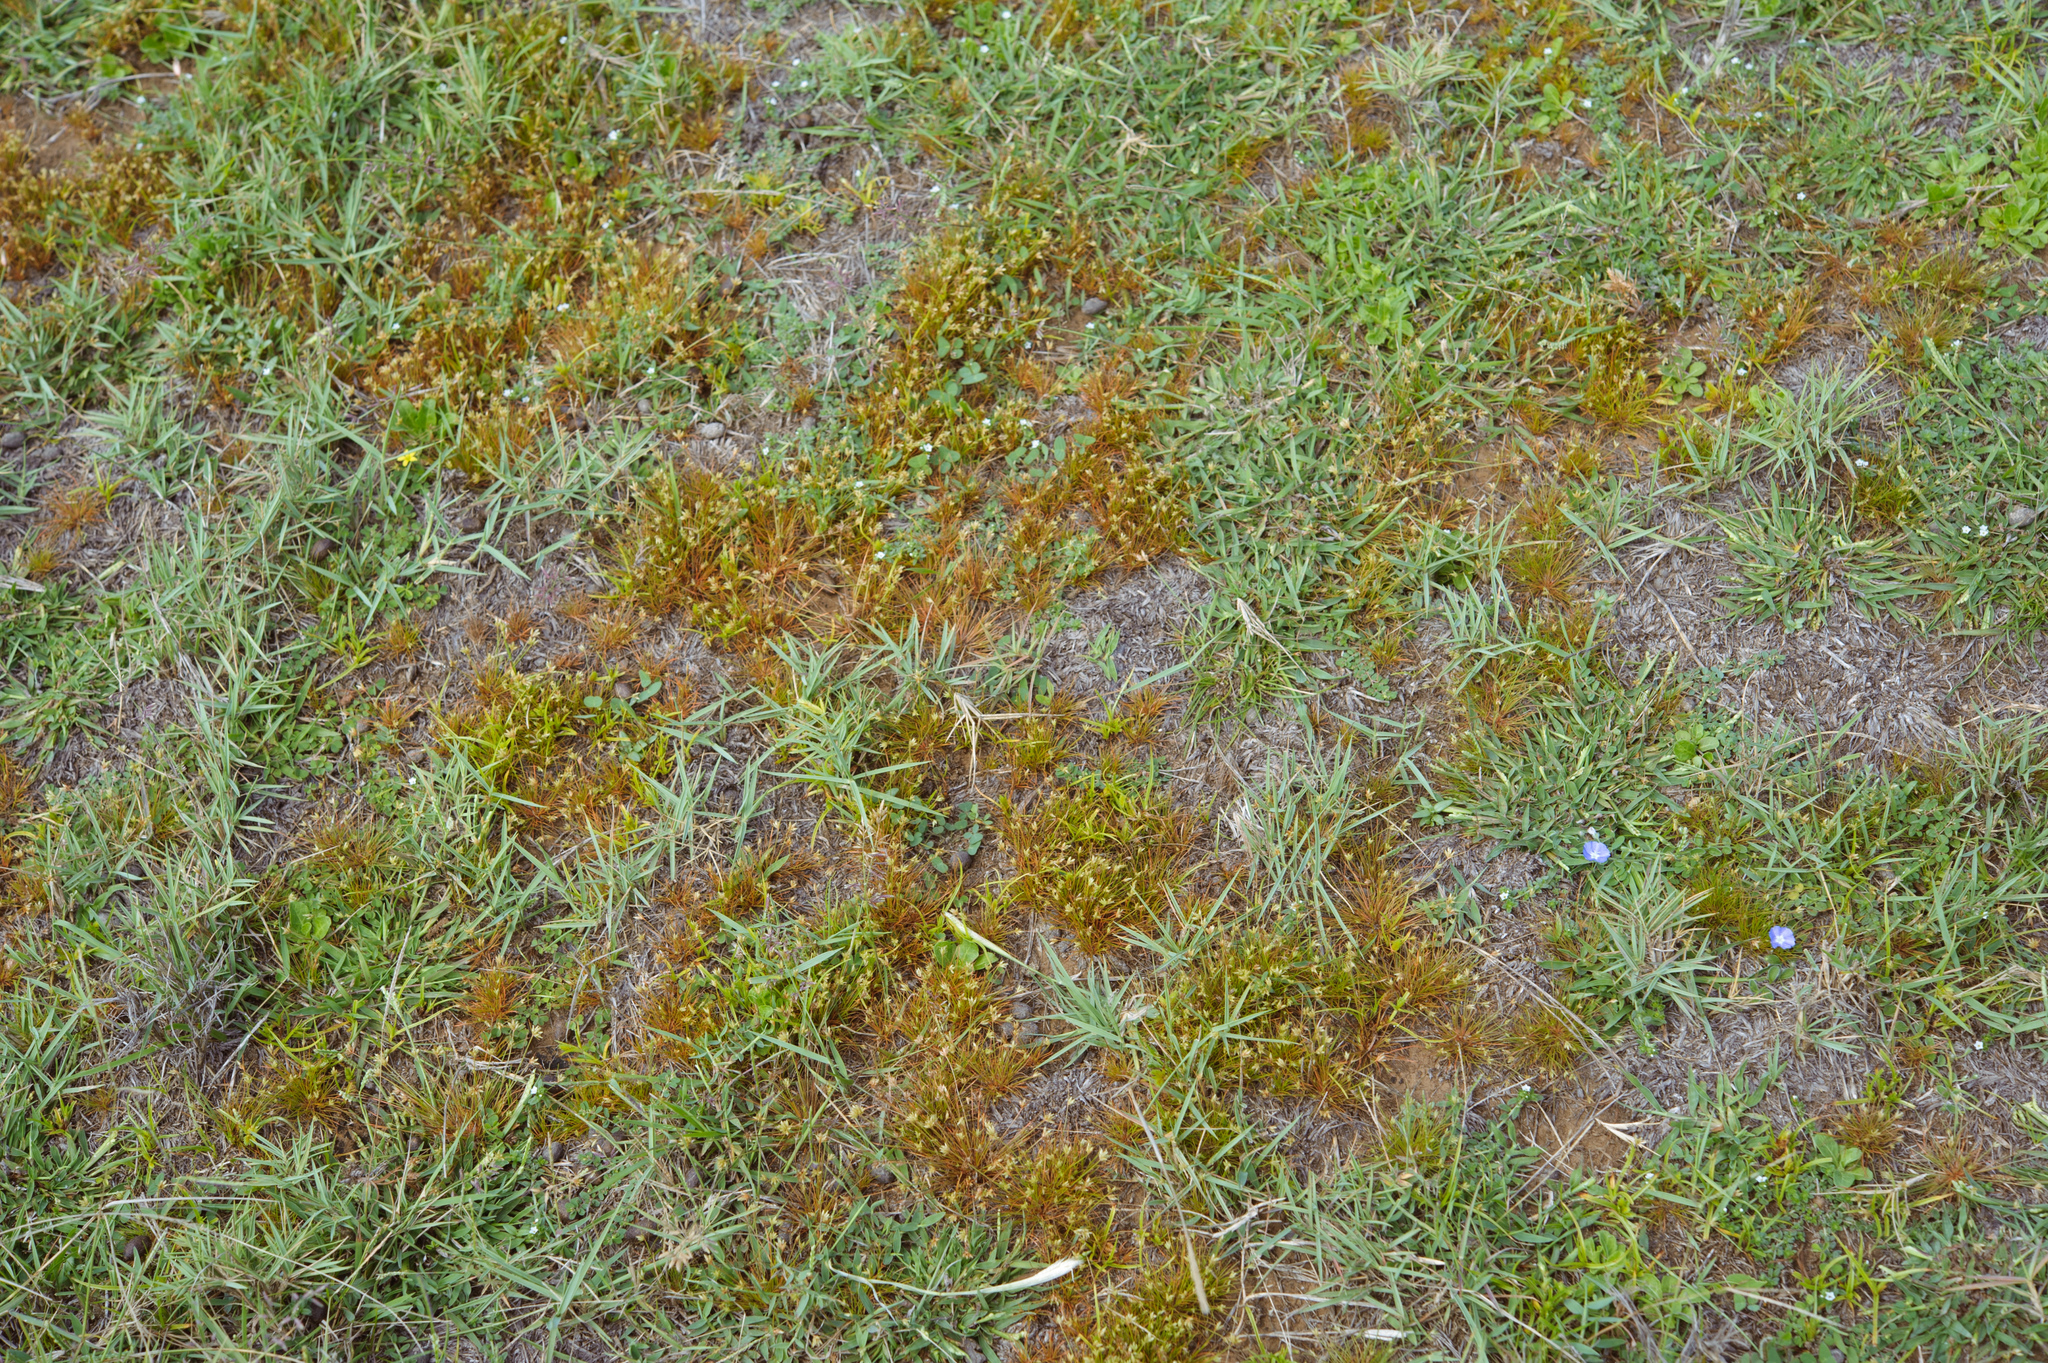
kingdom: Plantae
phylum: Tracheophyta
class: Liliopsida
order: Poales
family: Cyperaceae
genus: Bulbostylis
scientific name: Bulbostylis barbata
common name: Watergrass
